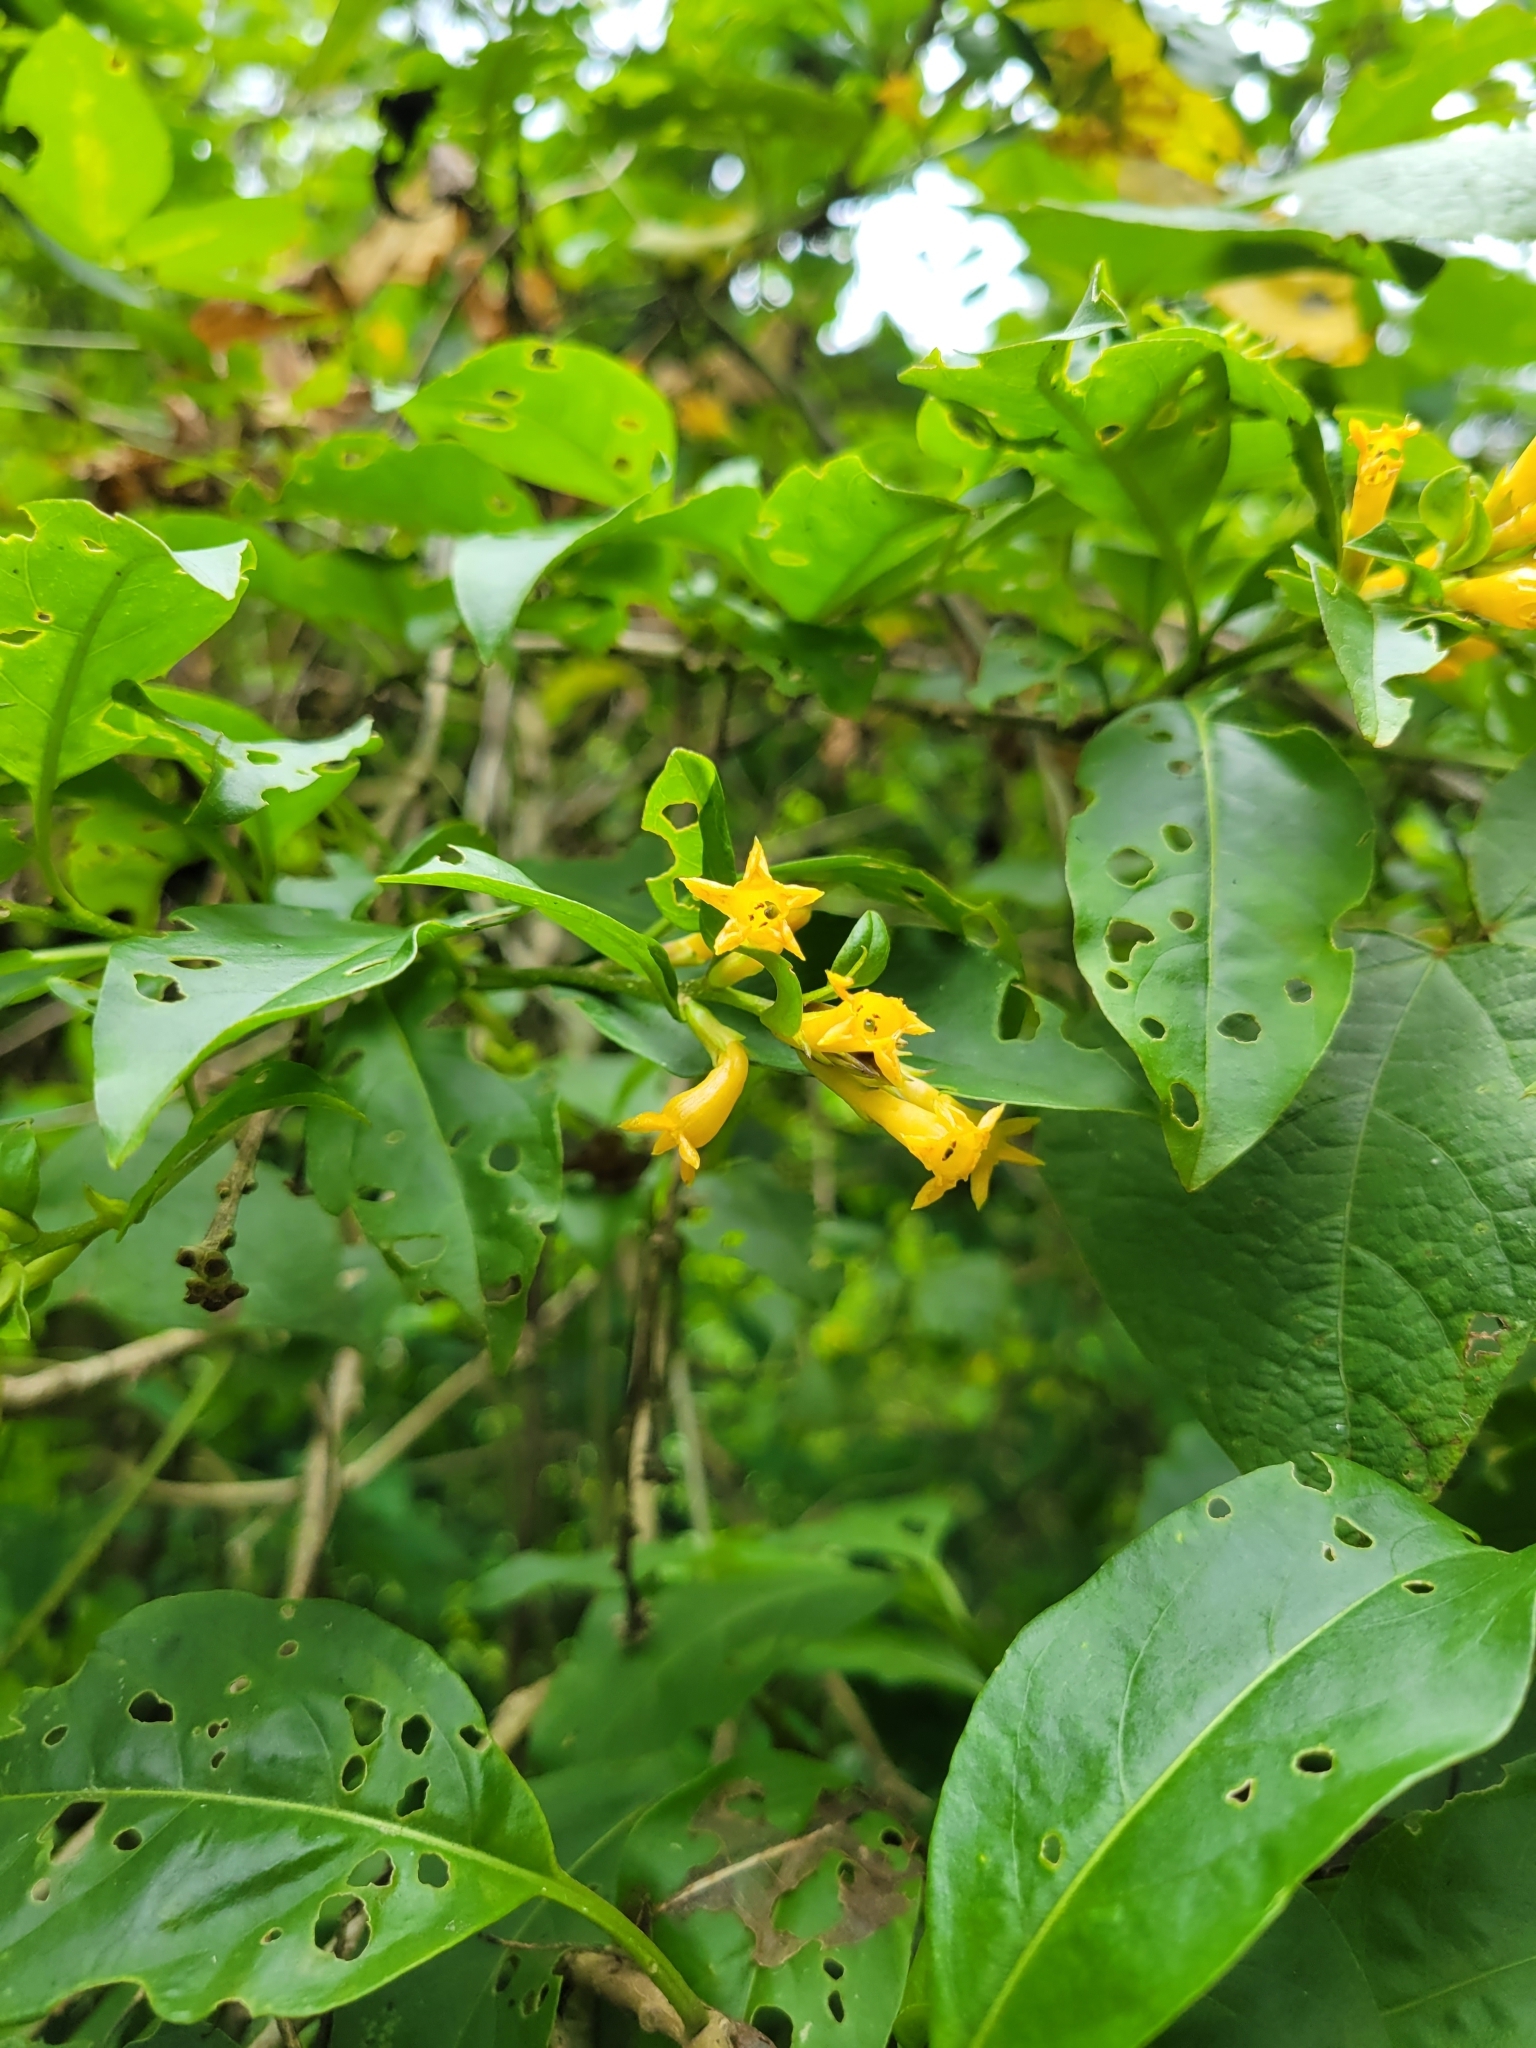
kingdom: Plantae
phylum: Tracheophyta
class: Magnoliopsida
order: Solanales
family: Solanaceae
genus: Cestrum
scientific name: Cestrum aurantiacum
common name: Orange cestrum
